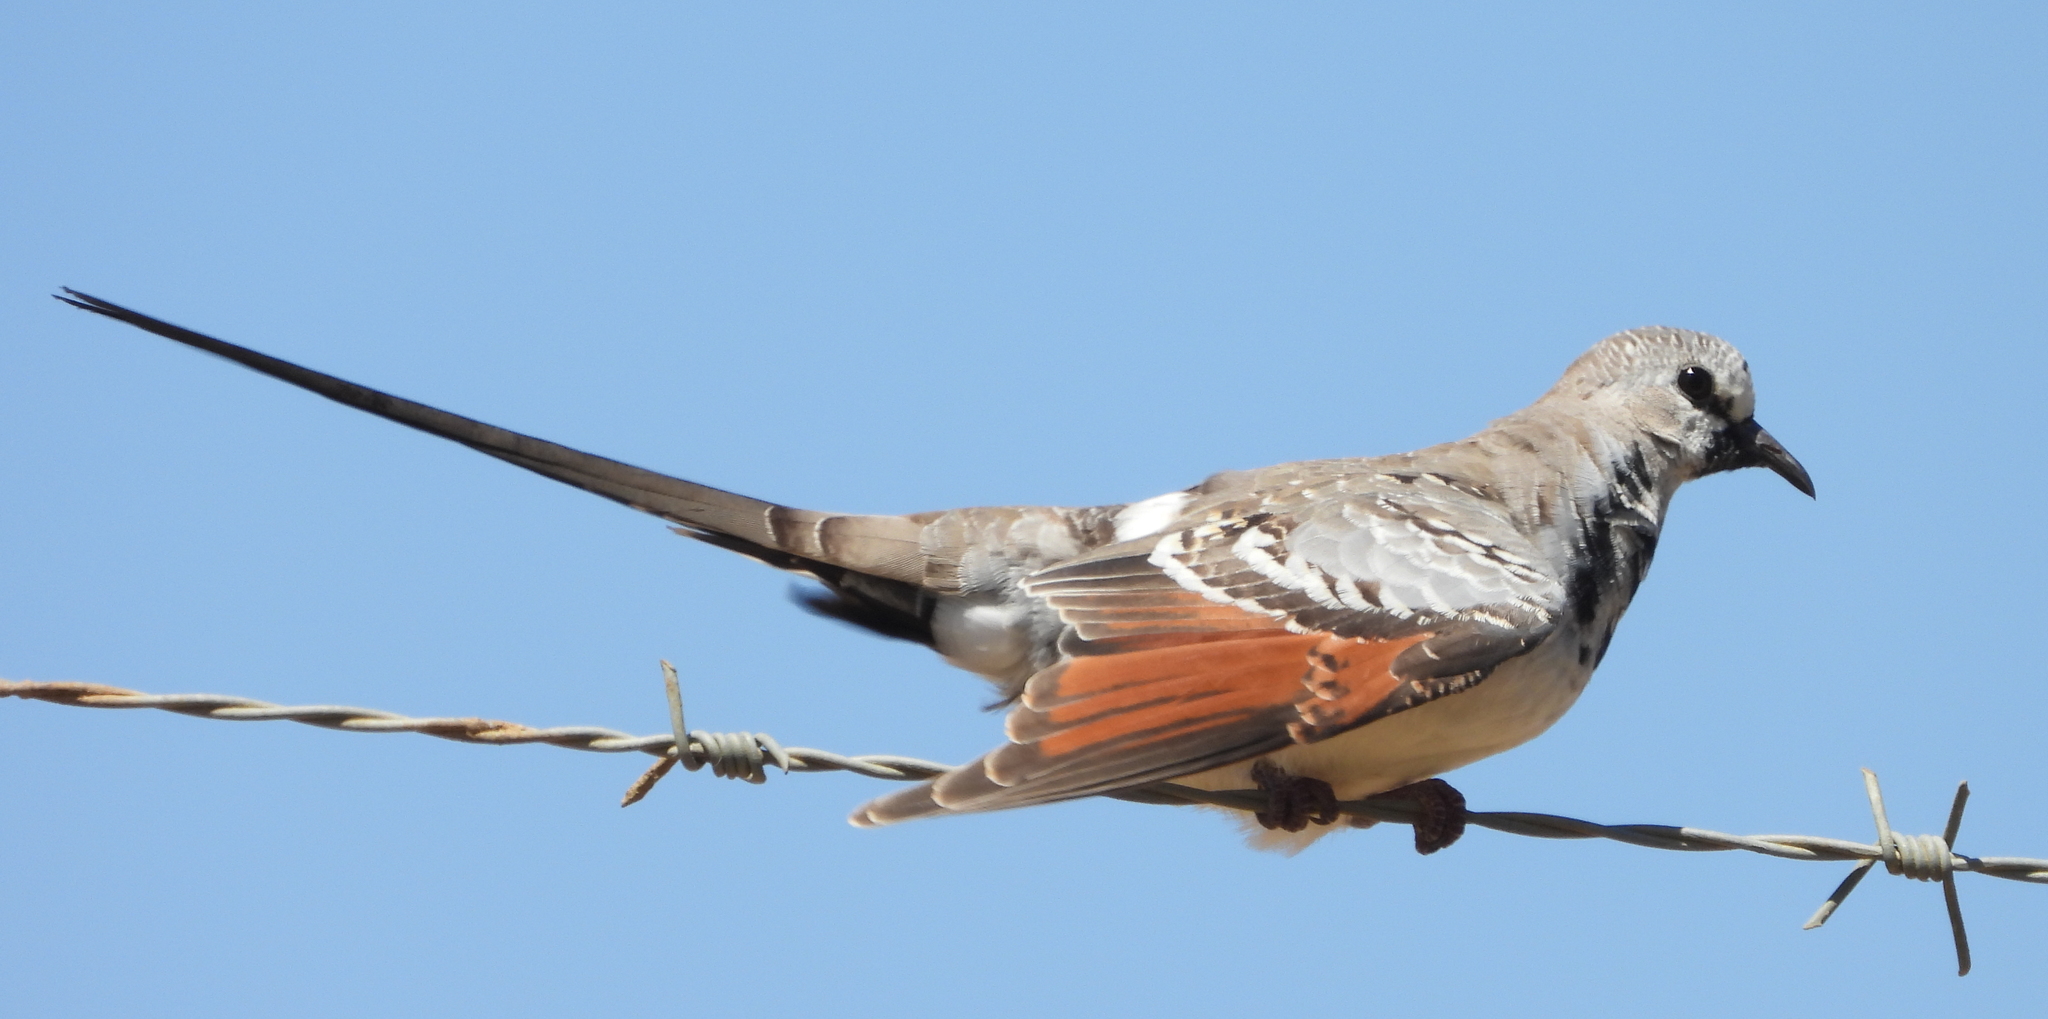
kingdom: Animalia
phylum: Chordata
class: Aves
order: Columbiformes
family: Columbidae
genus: Oena
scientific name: Oena capensis
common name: Namaqua dove
